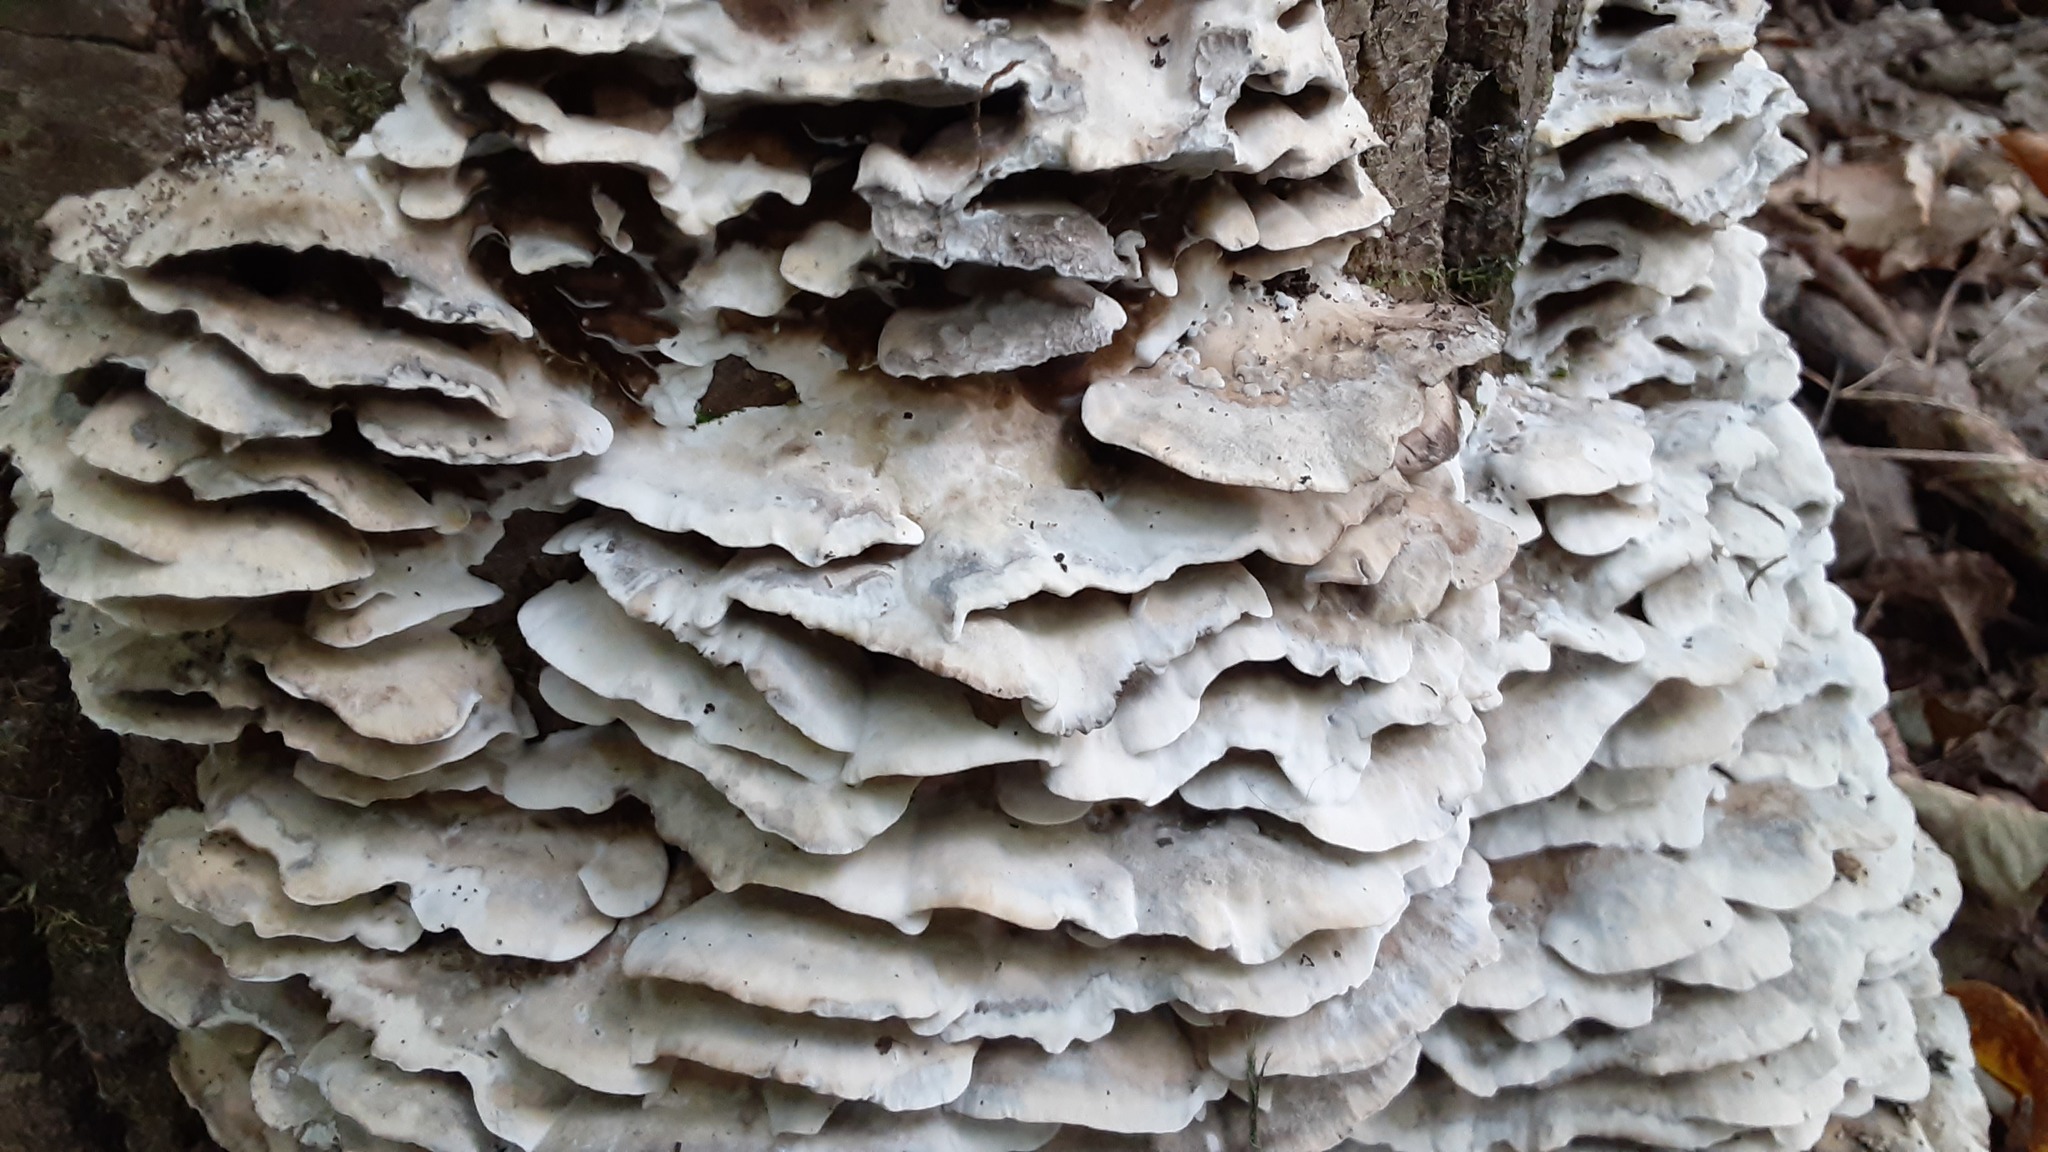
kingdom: Fungi
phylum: Basidiomycota
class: Agaricomycetes
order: Polyporales
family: Phanerochaetaceae
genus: Bjerkandera
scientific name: Bjerkandera adusta
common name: Smoky bracket
